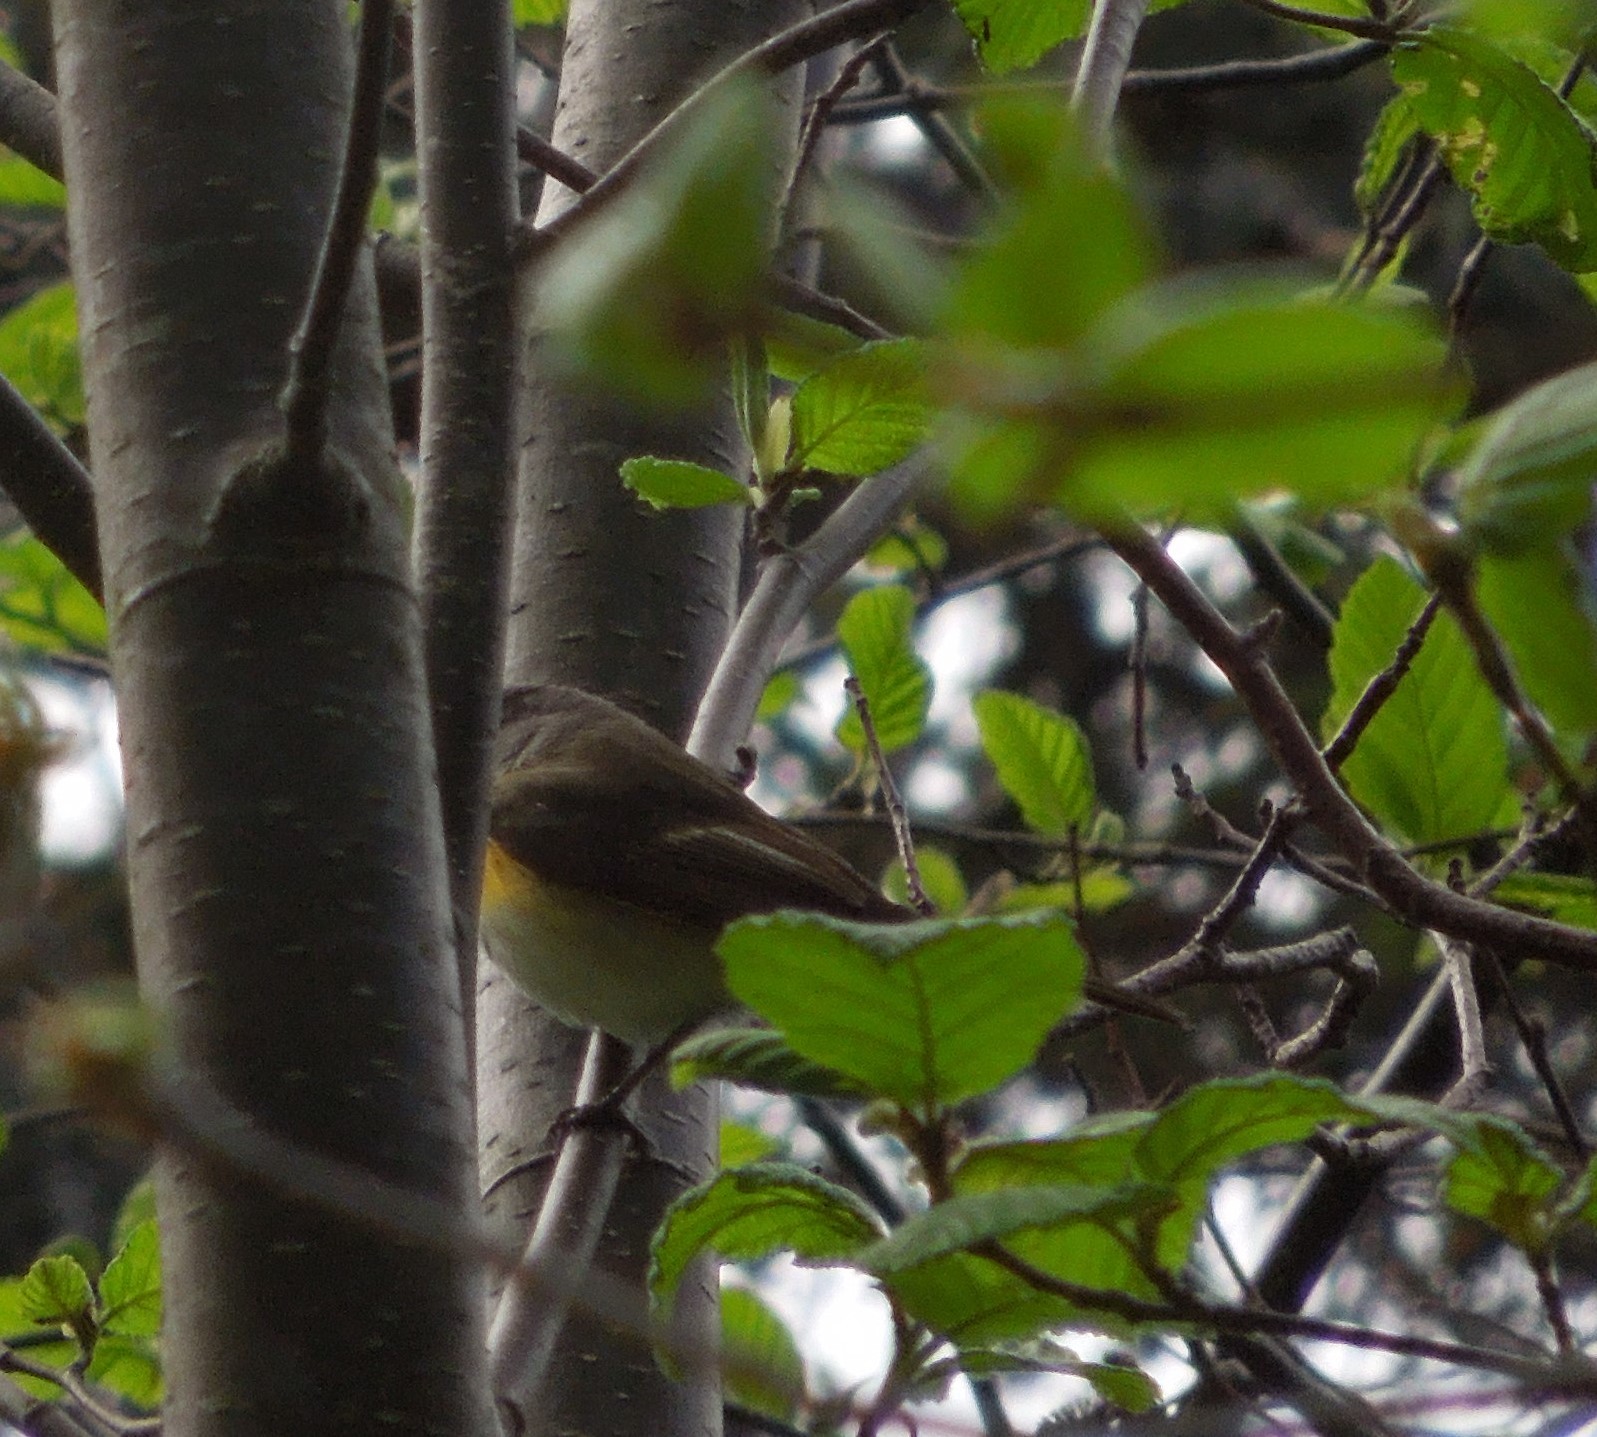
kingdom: Animalia
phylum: Chordata
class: Aves
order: Passeriformes
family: Parulidae
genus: Setophaga
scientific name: Setophaga ruticilla
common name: American redstart
